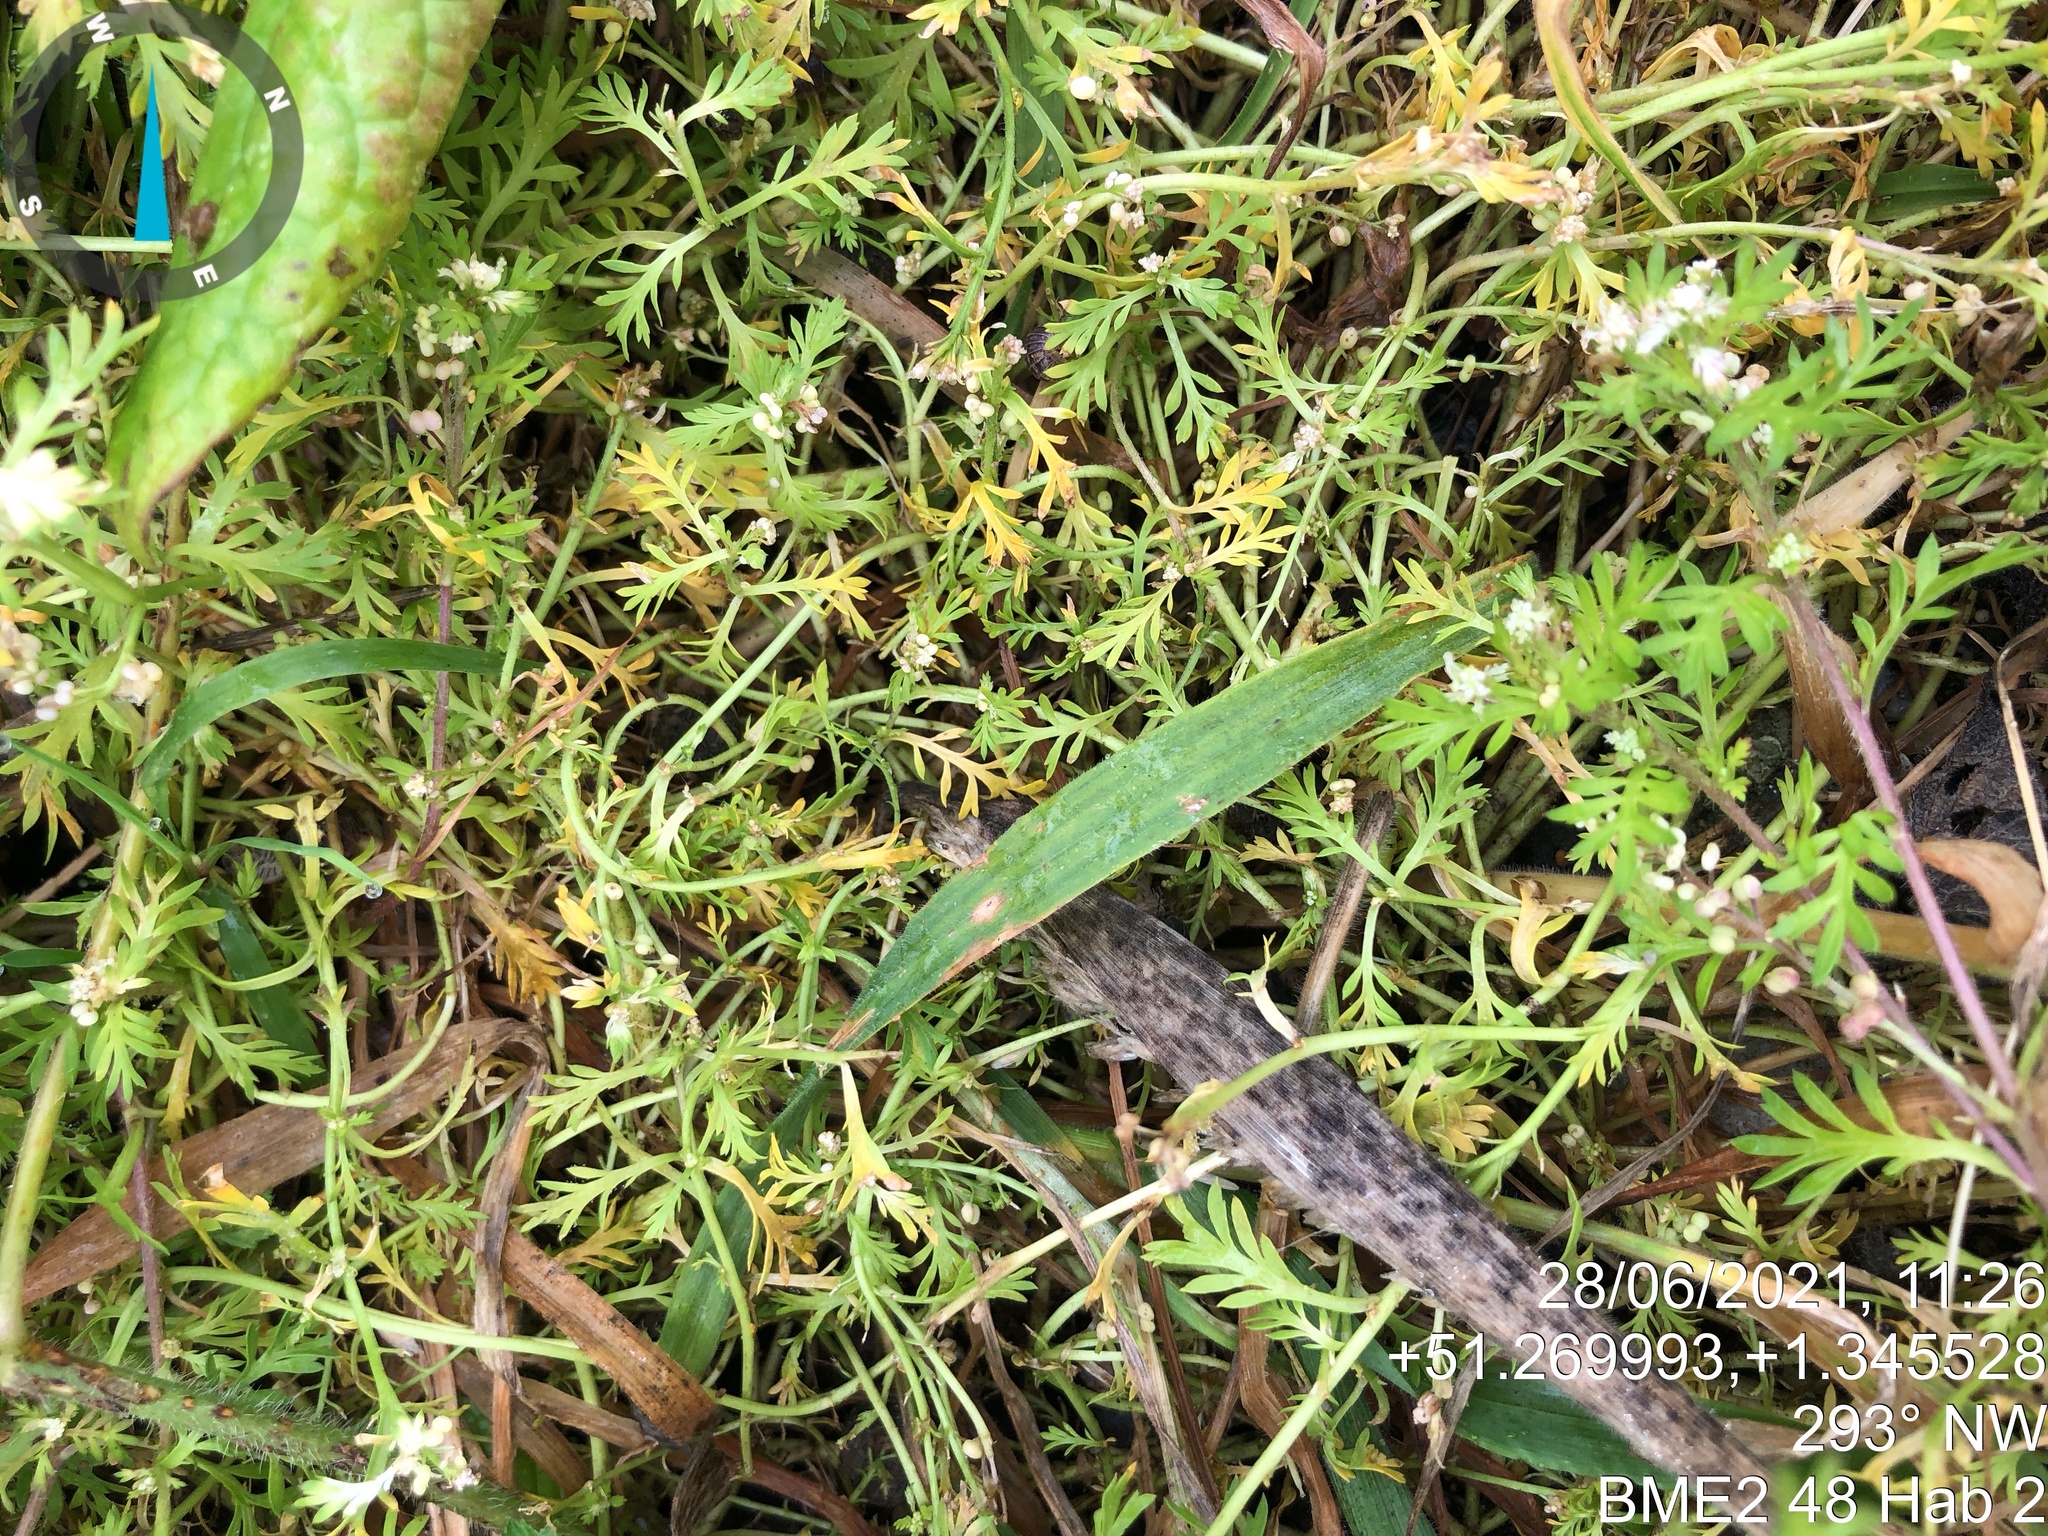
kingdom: Plantae
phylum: Tracheophyta
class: Magnoliopsida
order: Brassicales
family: Brassicaceae
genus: Lepidium
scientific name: Lepidium didymum
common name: Lesser swinecress
